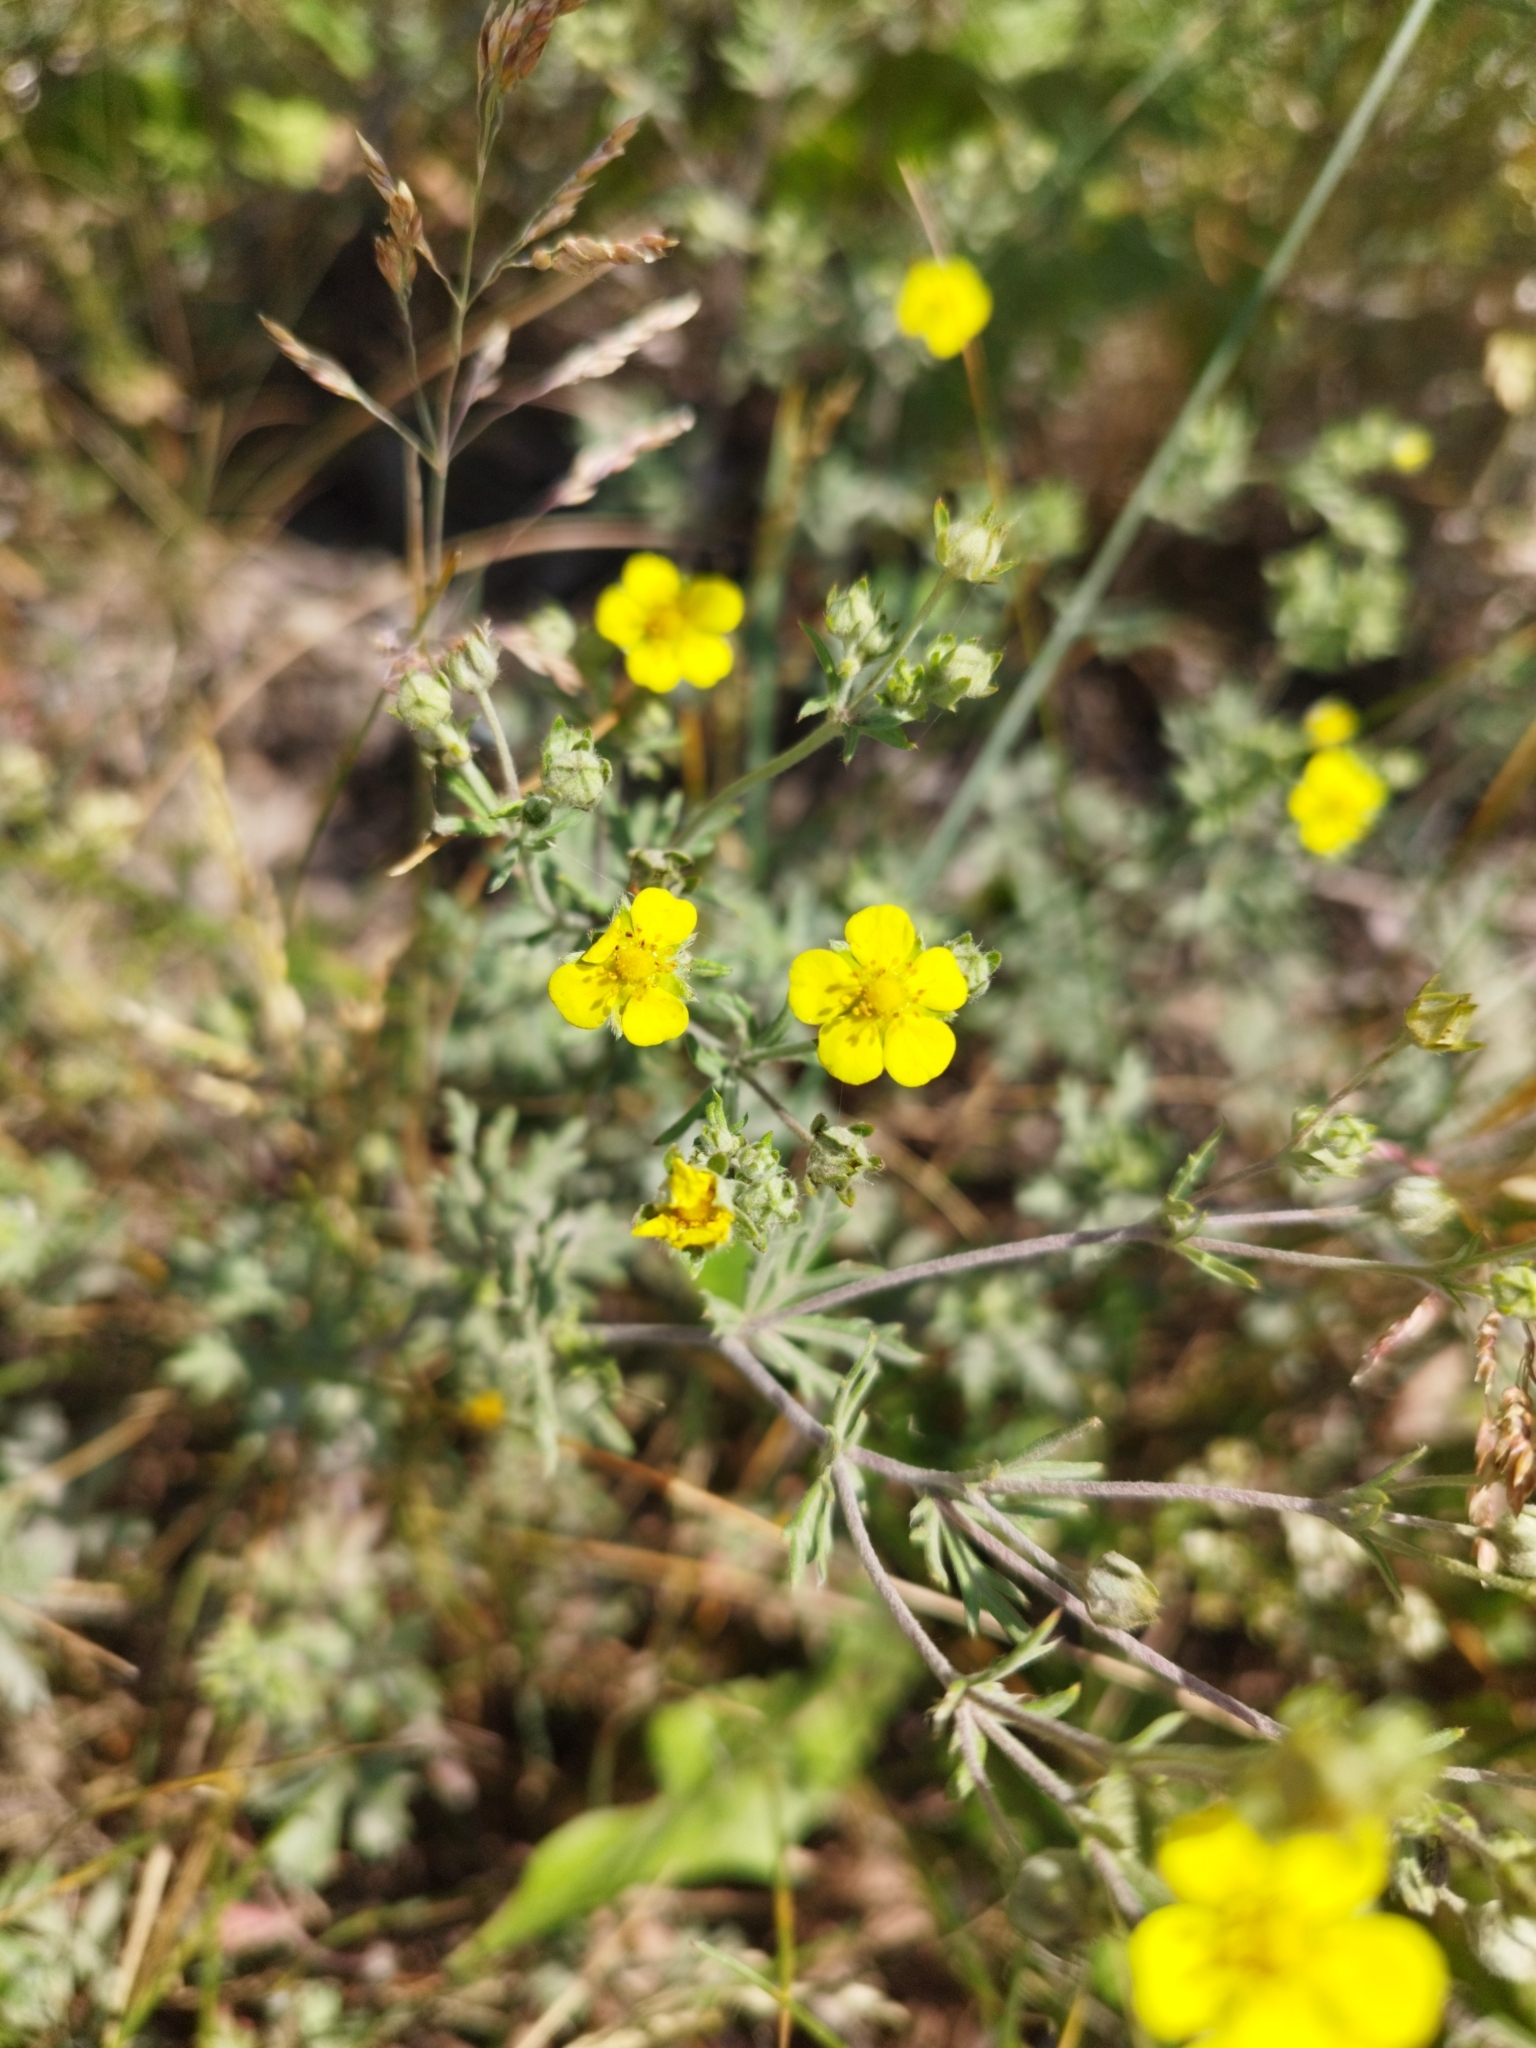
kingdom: Plantae
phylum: Tracheophyta
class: Magnoliopsida
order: Rosales
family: Rosaceae
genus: Potentilla
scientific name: Potentilla argentea
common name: Hoary cinquefoil
